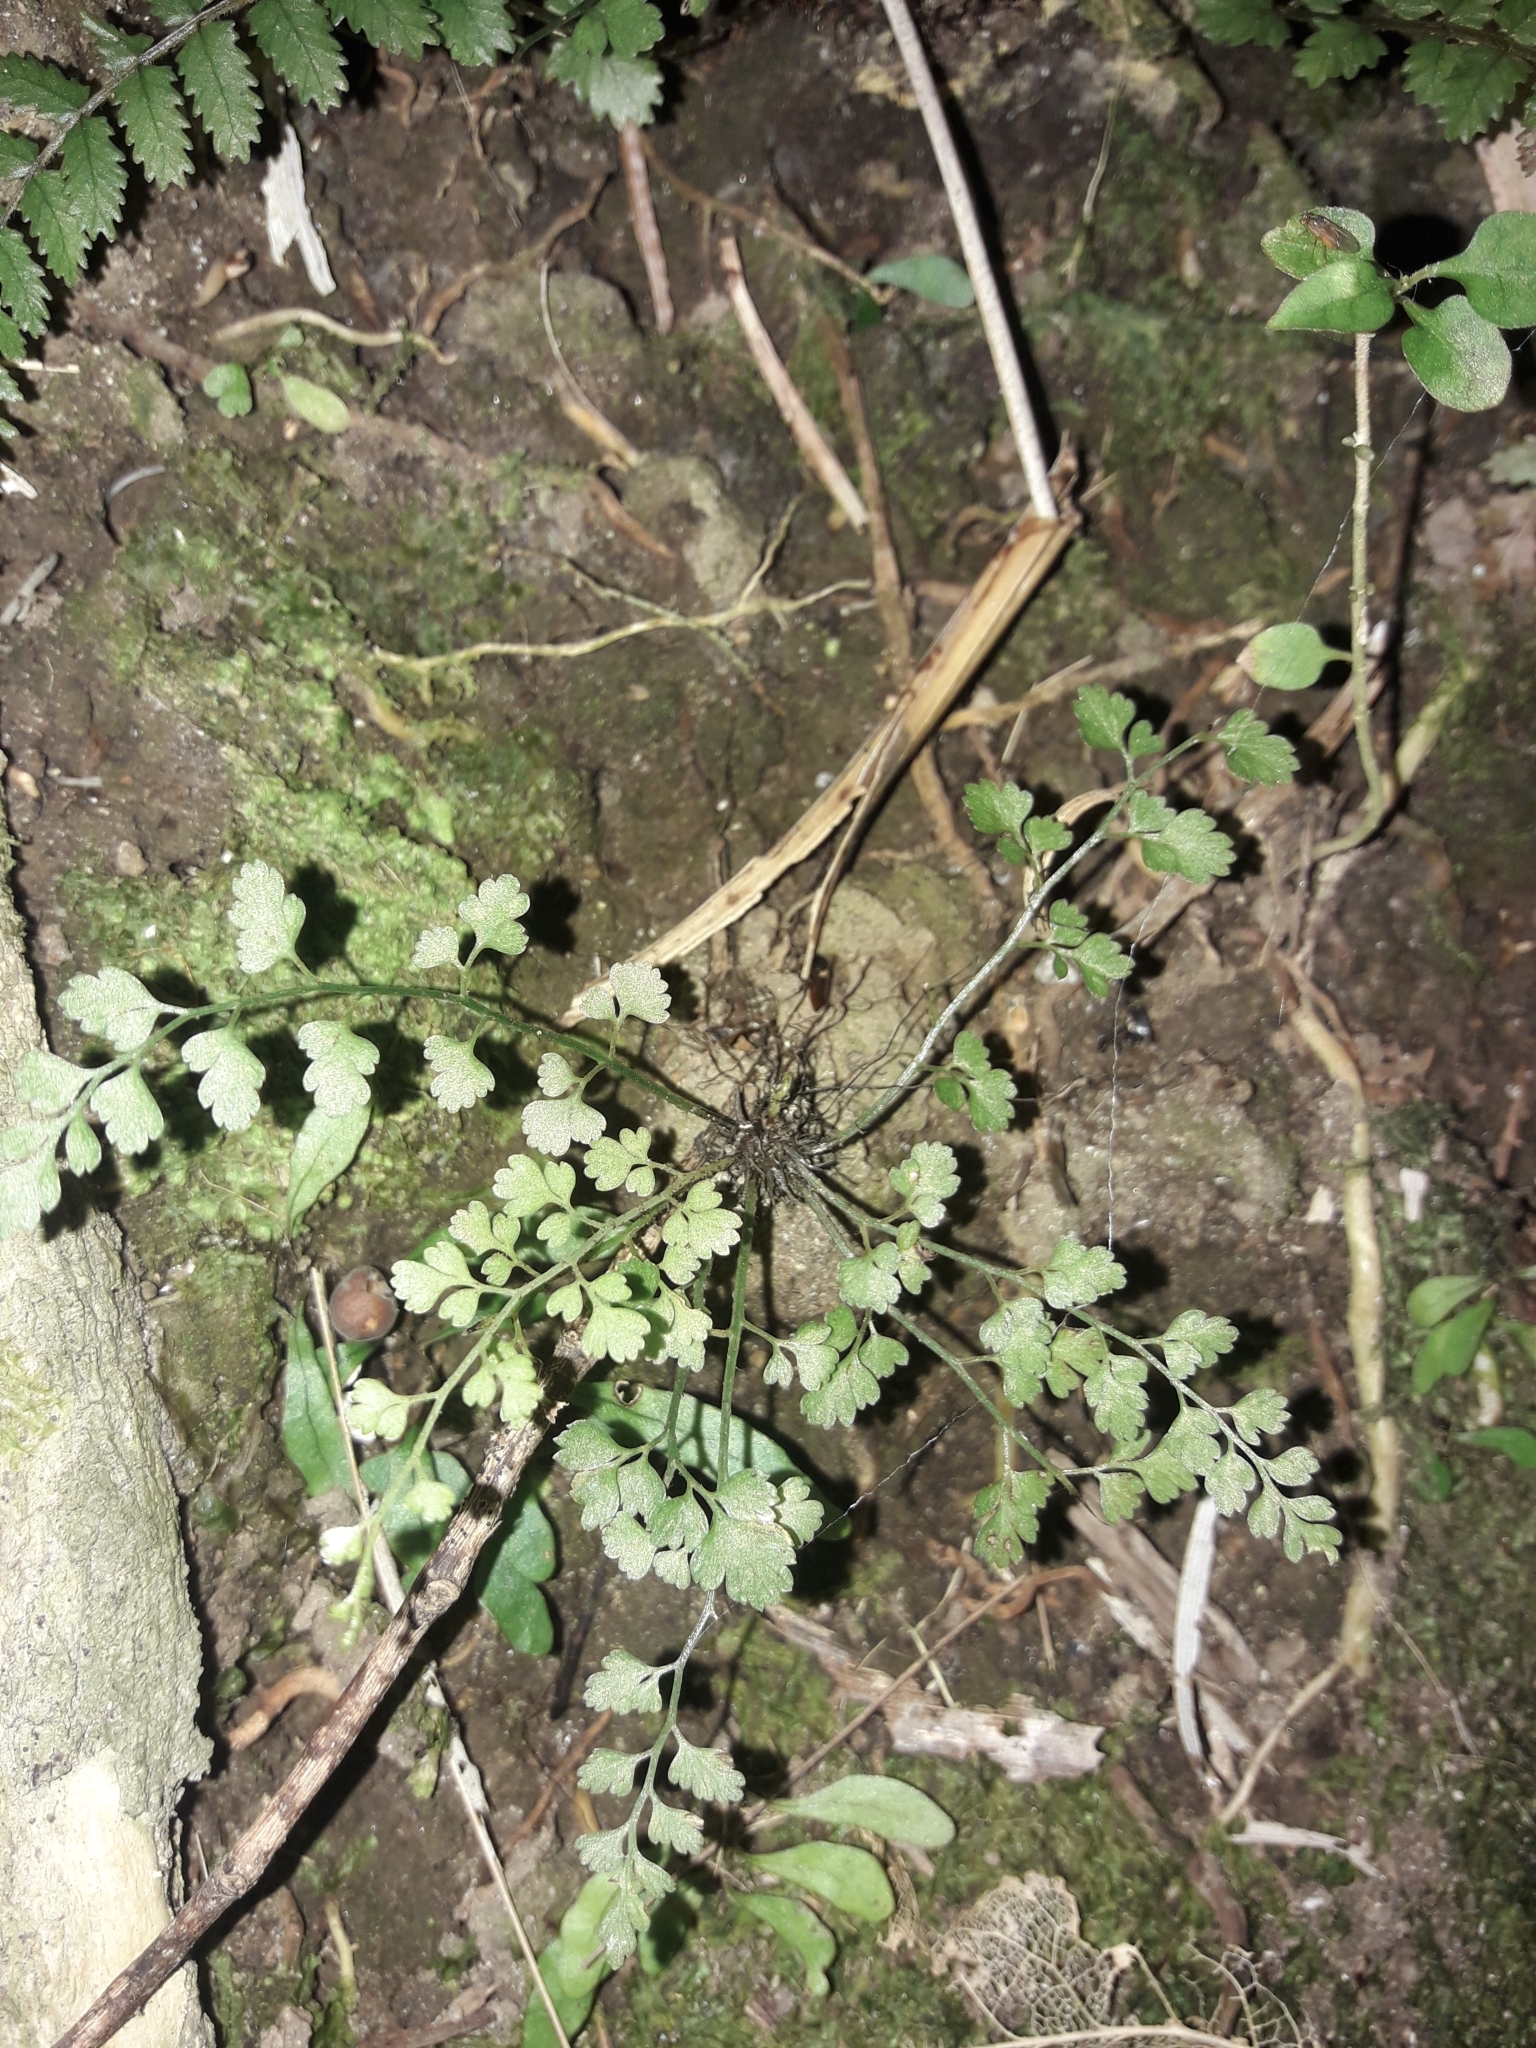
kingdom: Plantae
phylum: Tracheophyta
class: Polypodiopsida
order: Polypodiales
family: Aspleniaceae
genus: Asplenium
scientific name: Asplenium hookerianum
